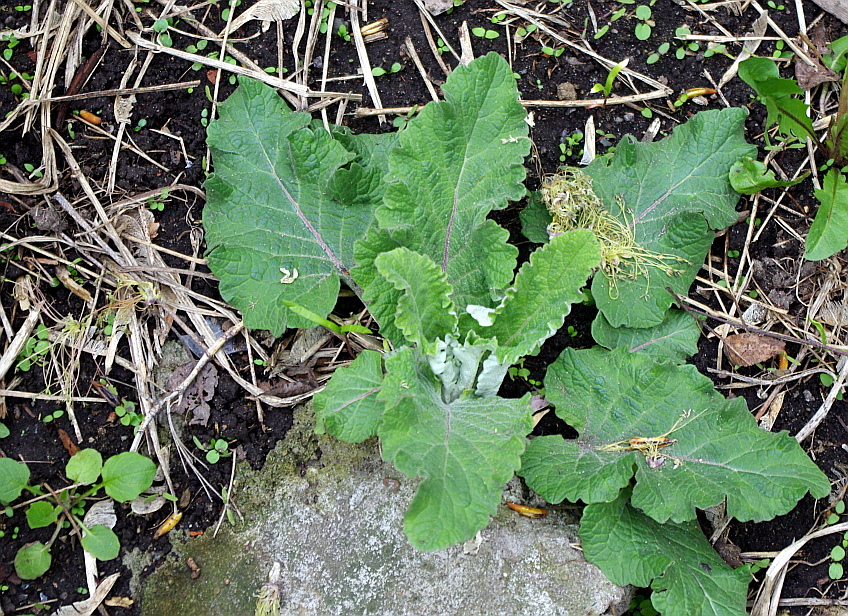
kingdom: Plantae
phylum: Tracheophyta
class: Magnoliopsida
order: Asterales
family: Asteraceae
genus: Arctium
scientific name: Arctium
